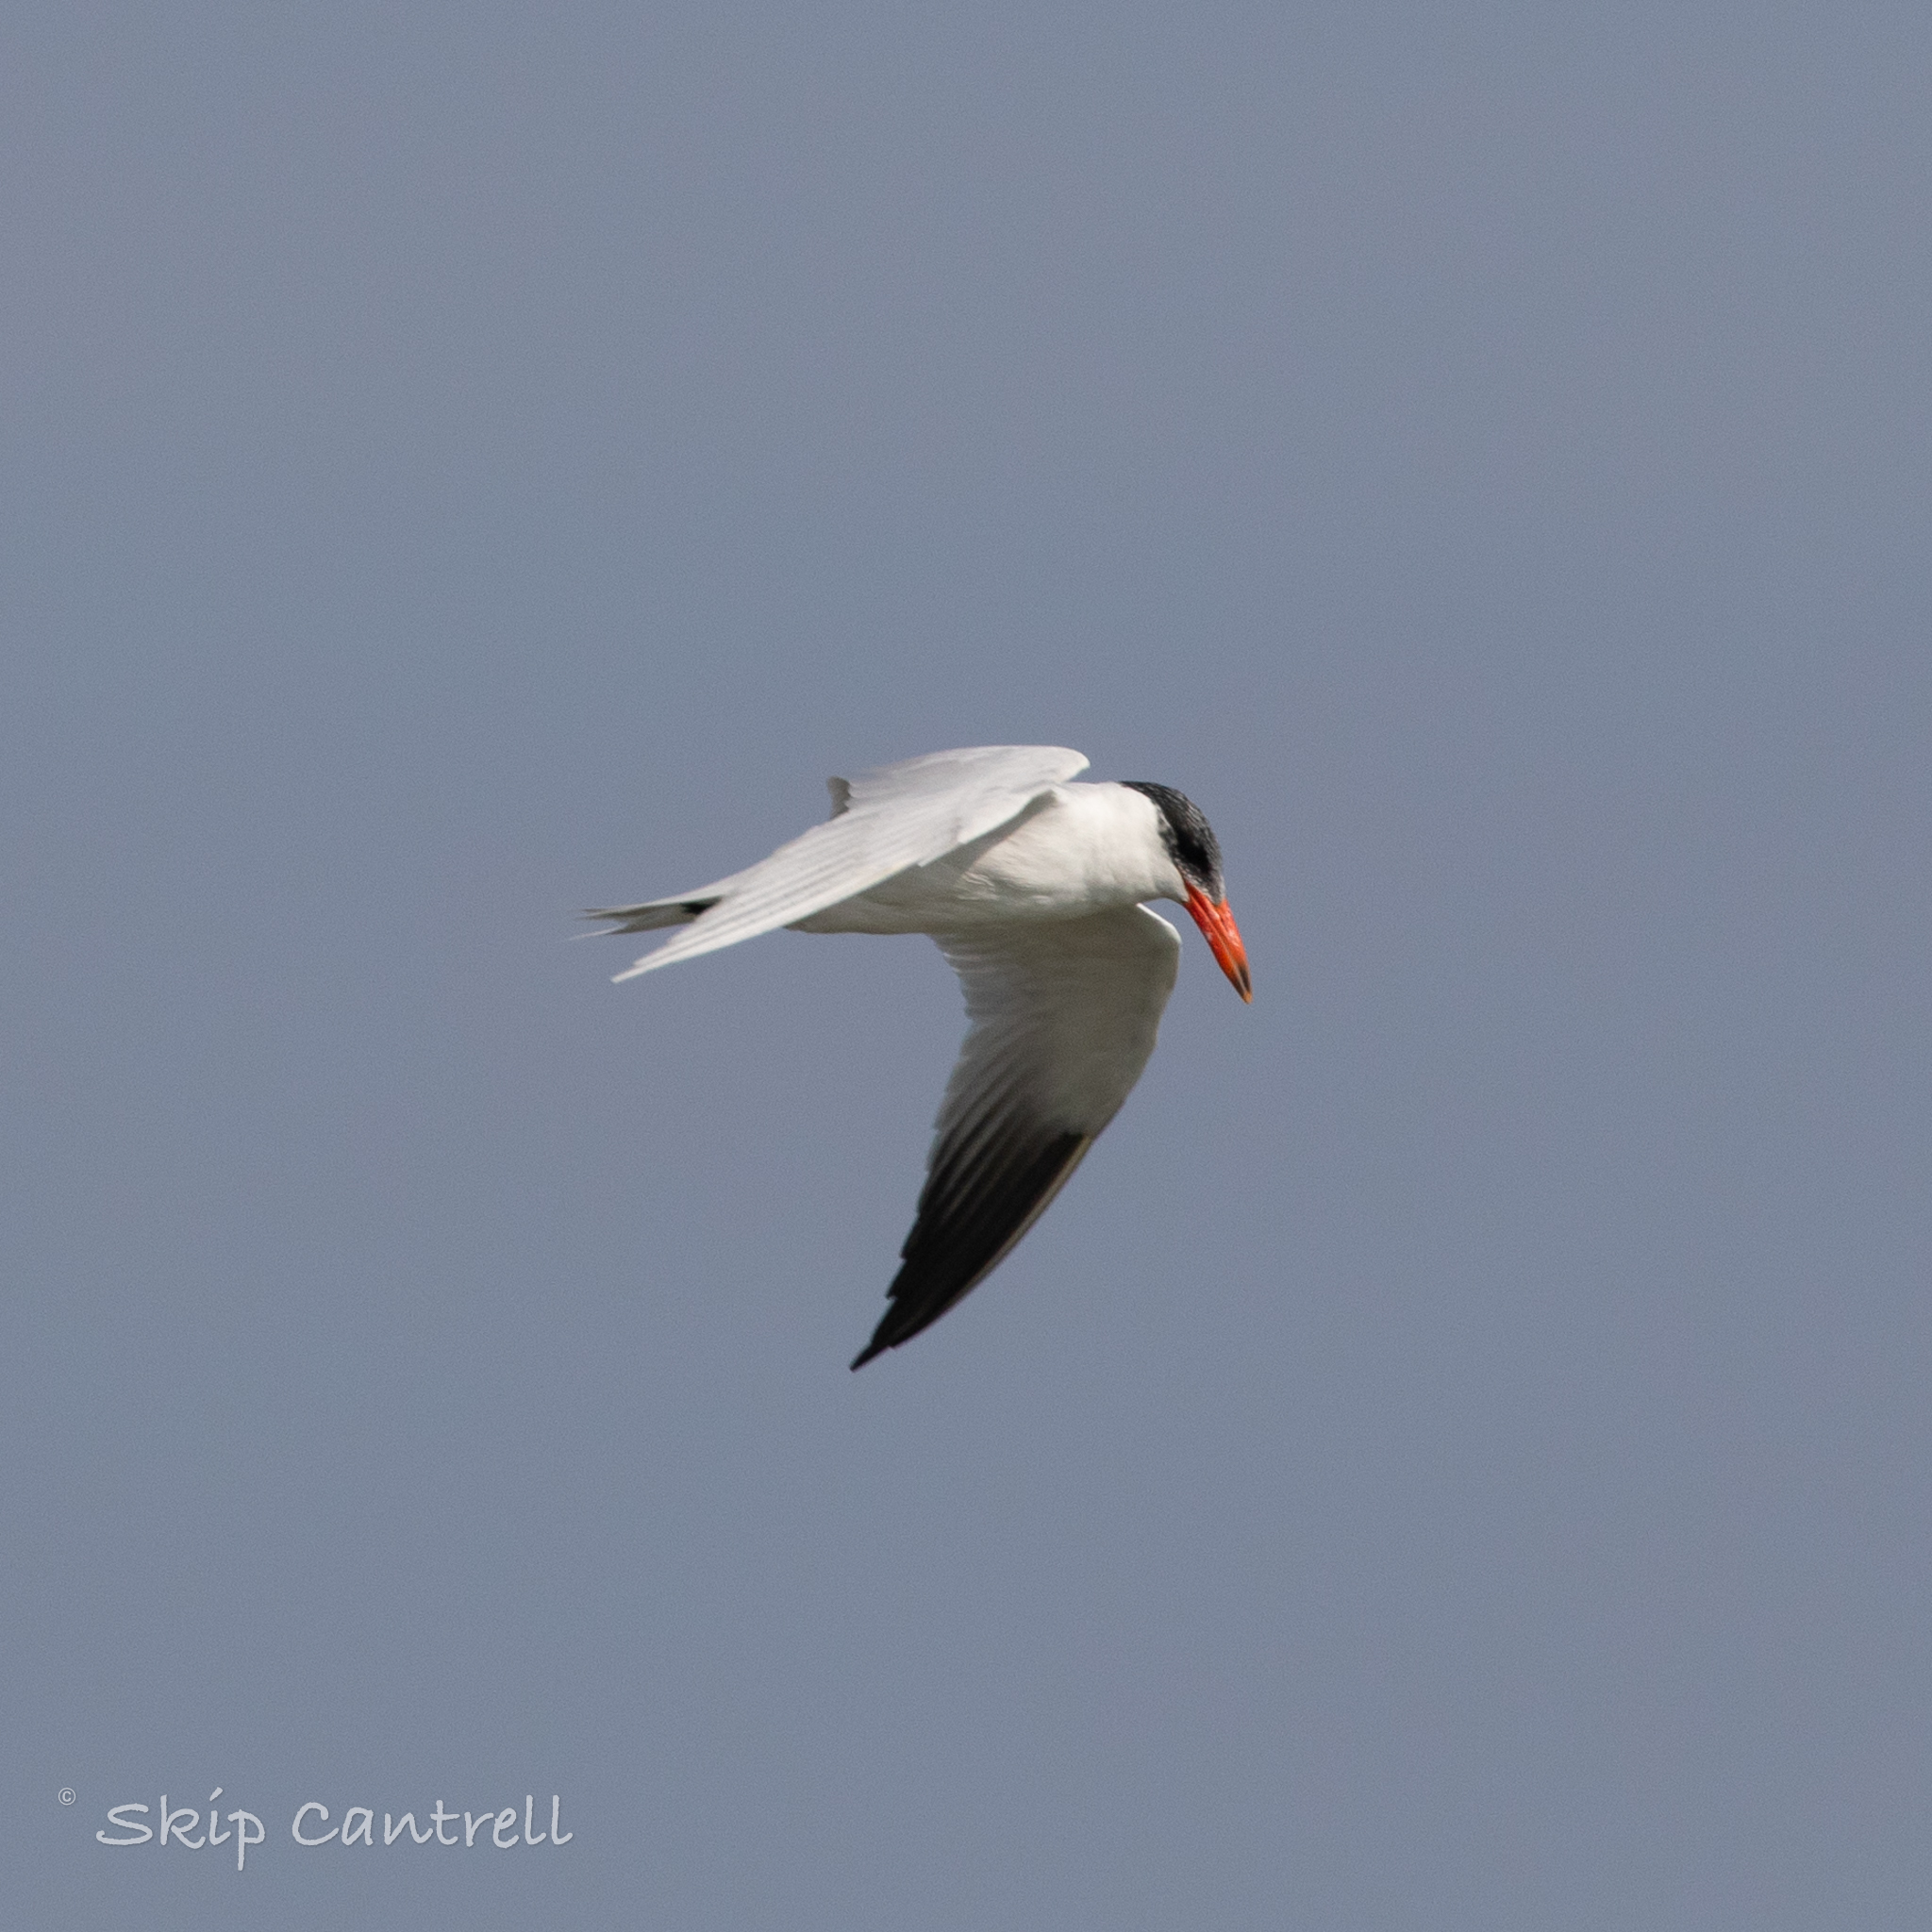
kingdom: Animalia
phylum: Chordata
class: Aves
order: Charadriiformes
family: Laridae
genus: Hydroprogne
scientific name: Hydroprogne caspia
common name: Caspian tern
